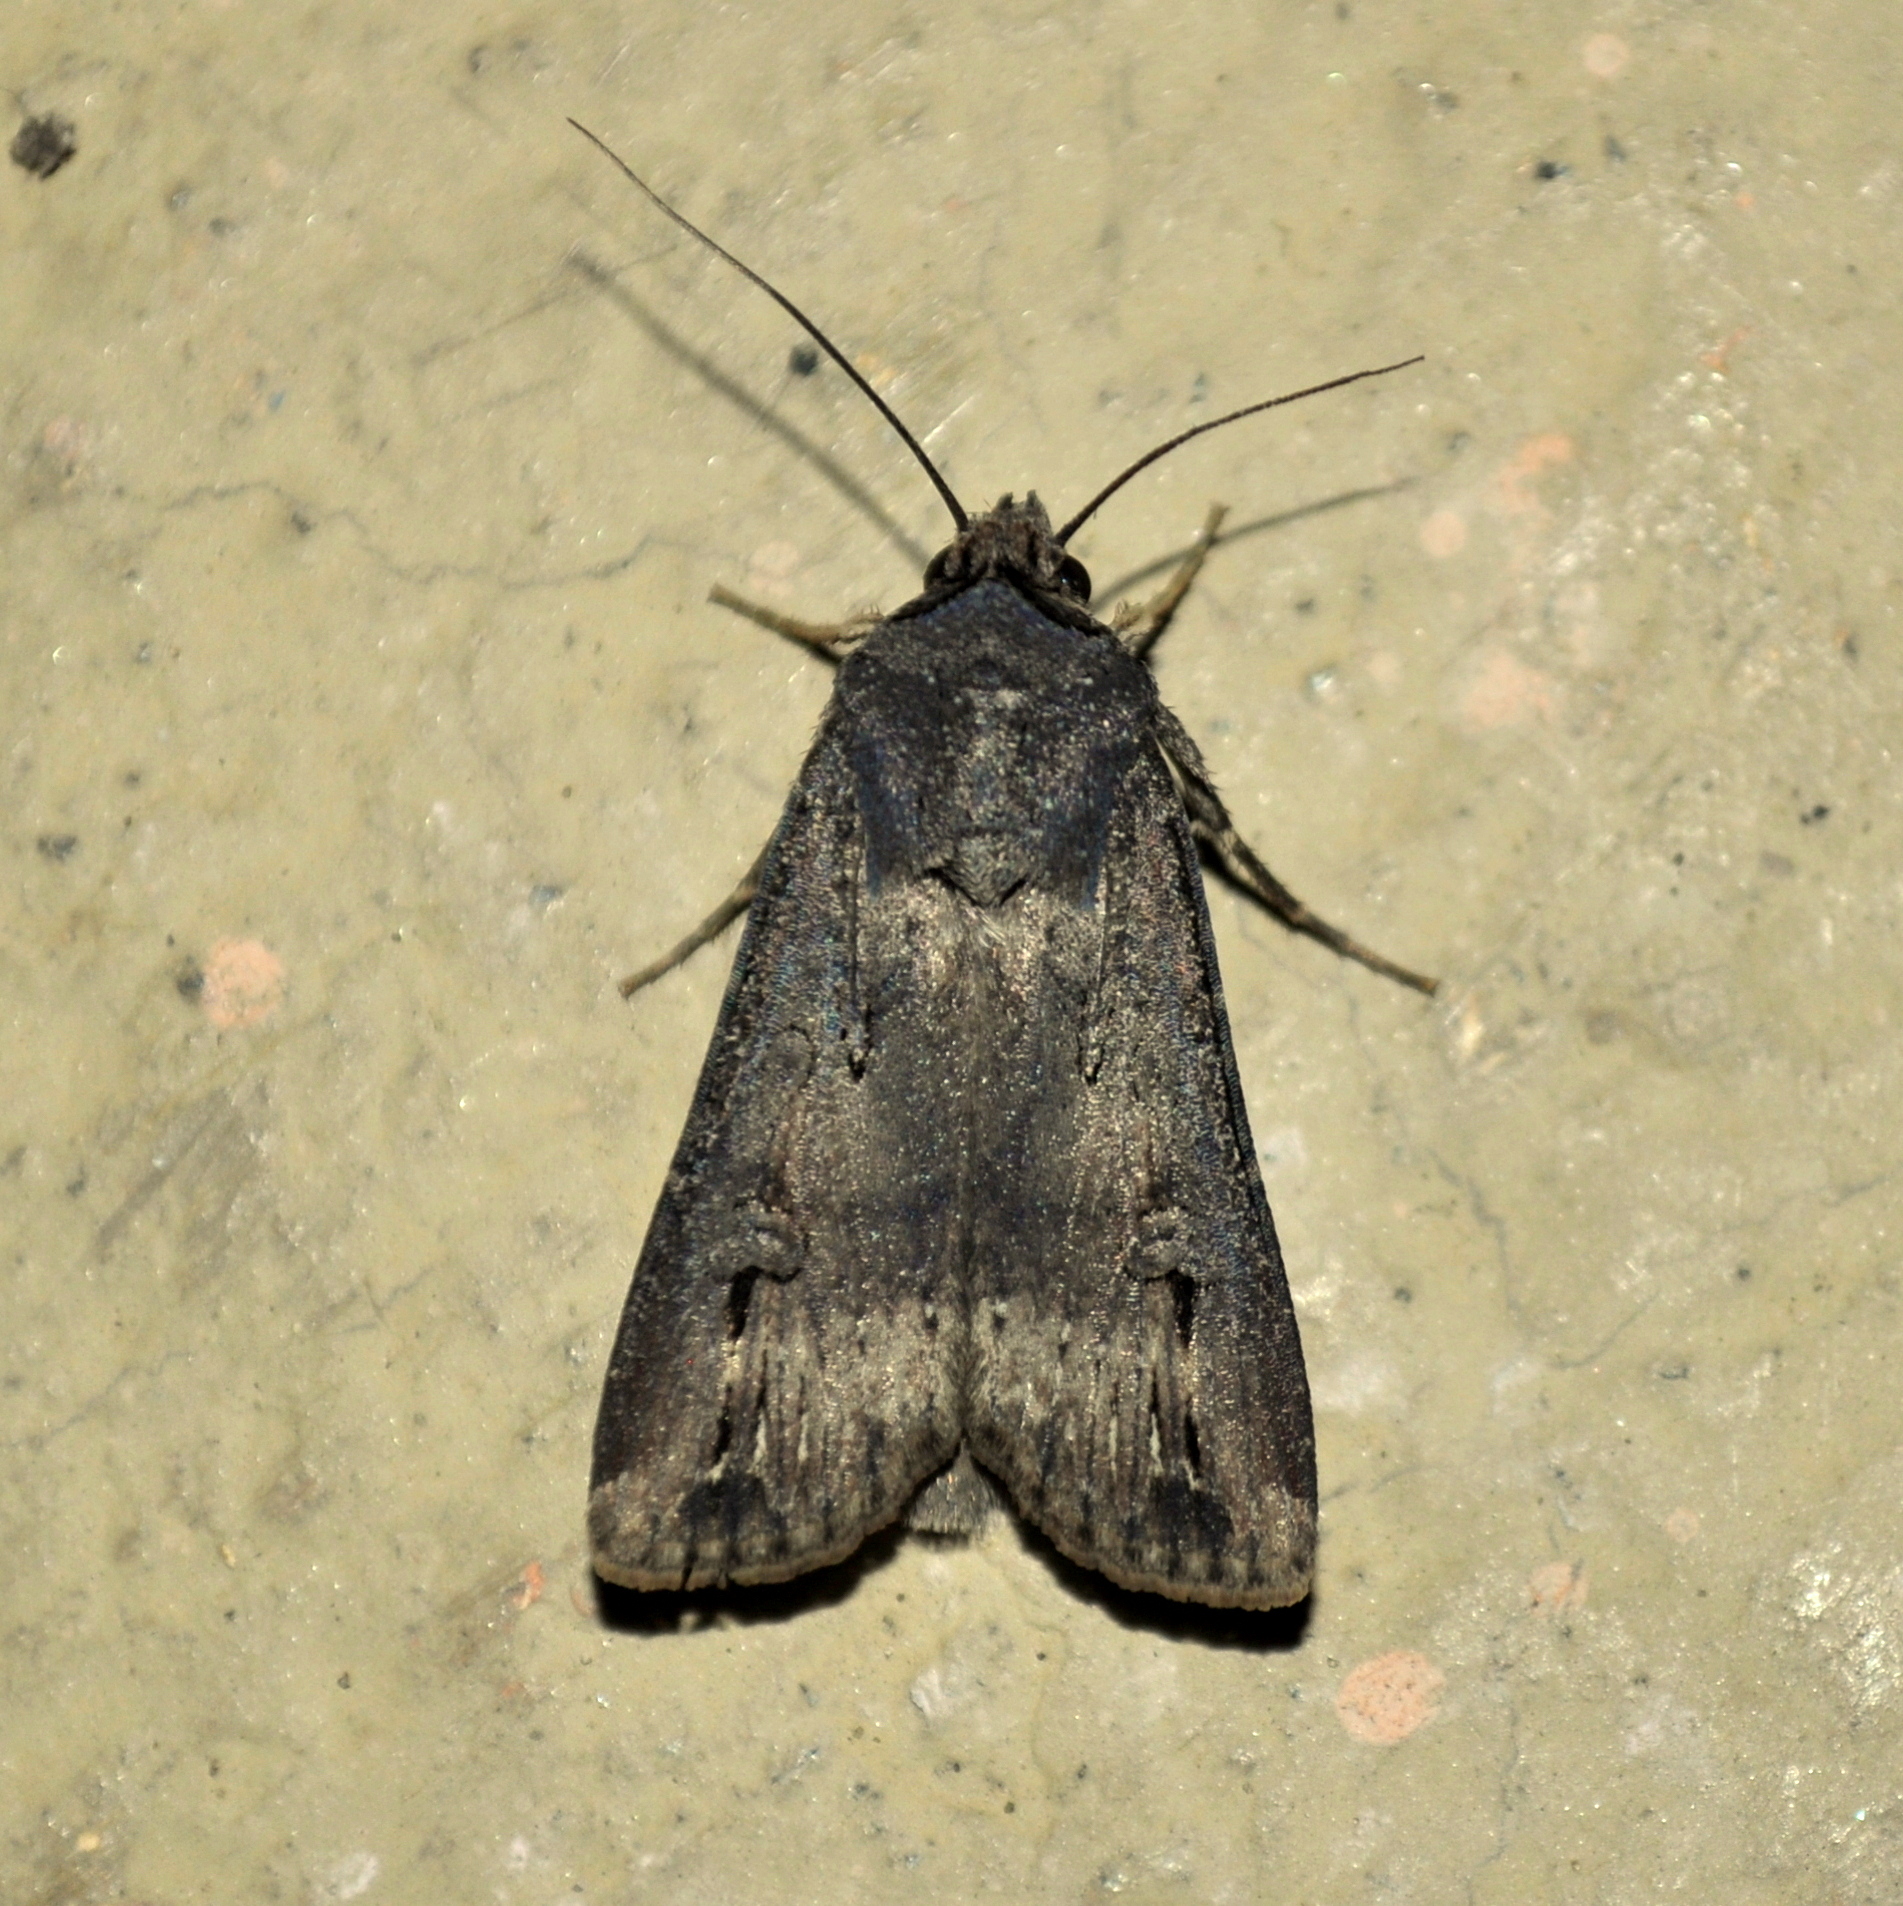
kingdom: Animalia
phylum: Arthropoda
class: Insecta
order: Lepidoptera
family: Noctuidae
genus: Agrotis
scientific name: Agrotis ipsilon
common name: Dark sword-grass
